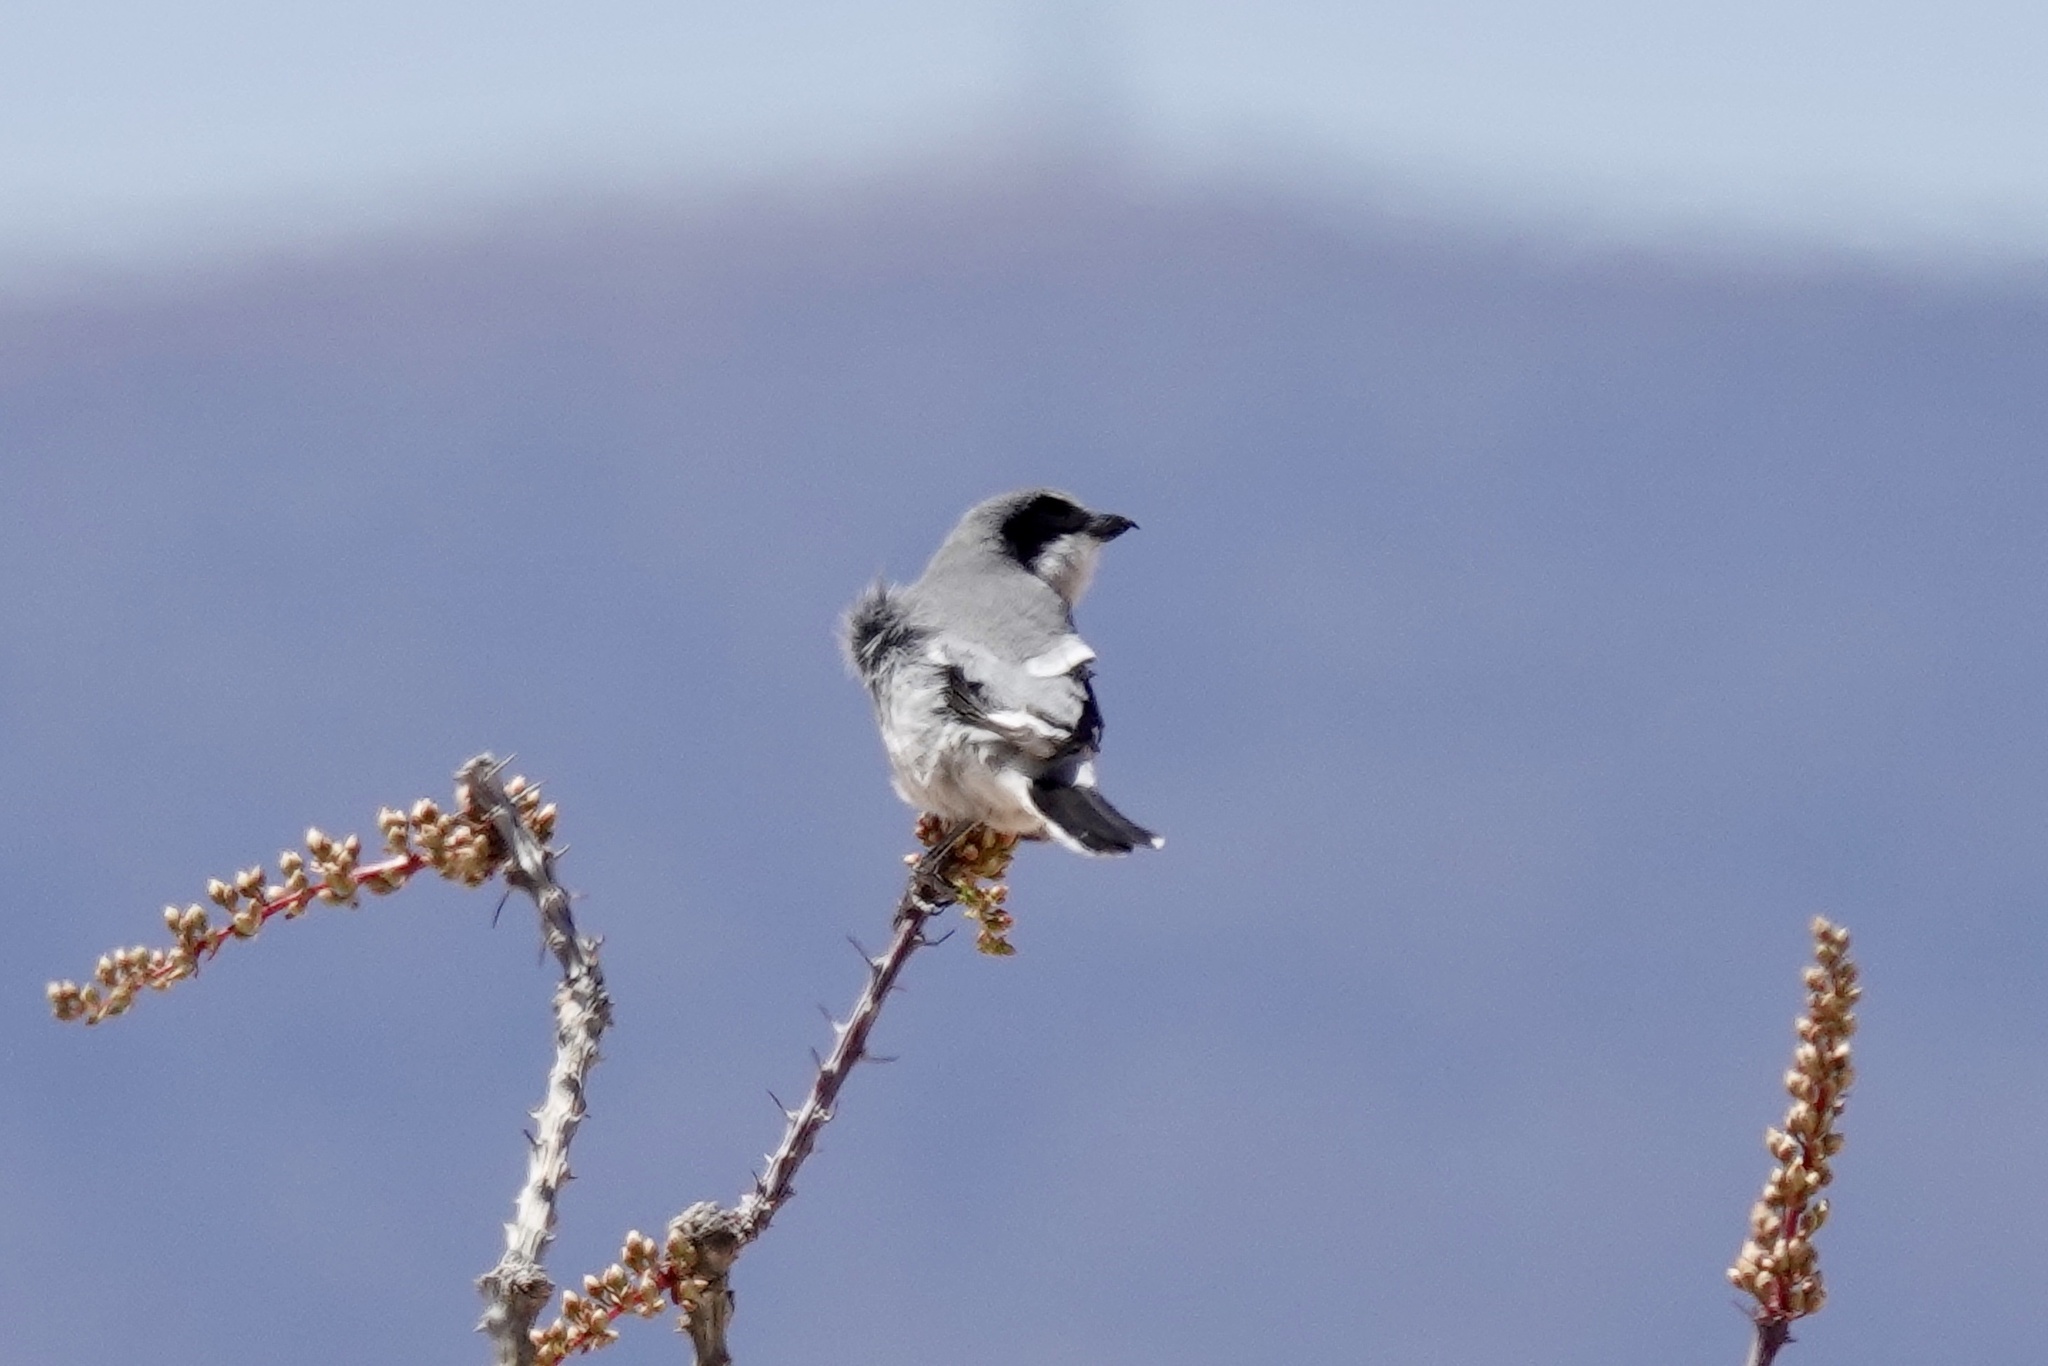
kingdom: Animalia
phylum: Chordata
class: Aves
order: Passeriformes
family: Laniidae
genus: Lanius
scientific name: Lanius ludovicianus
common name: Loggerhead shrike
